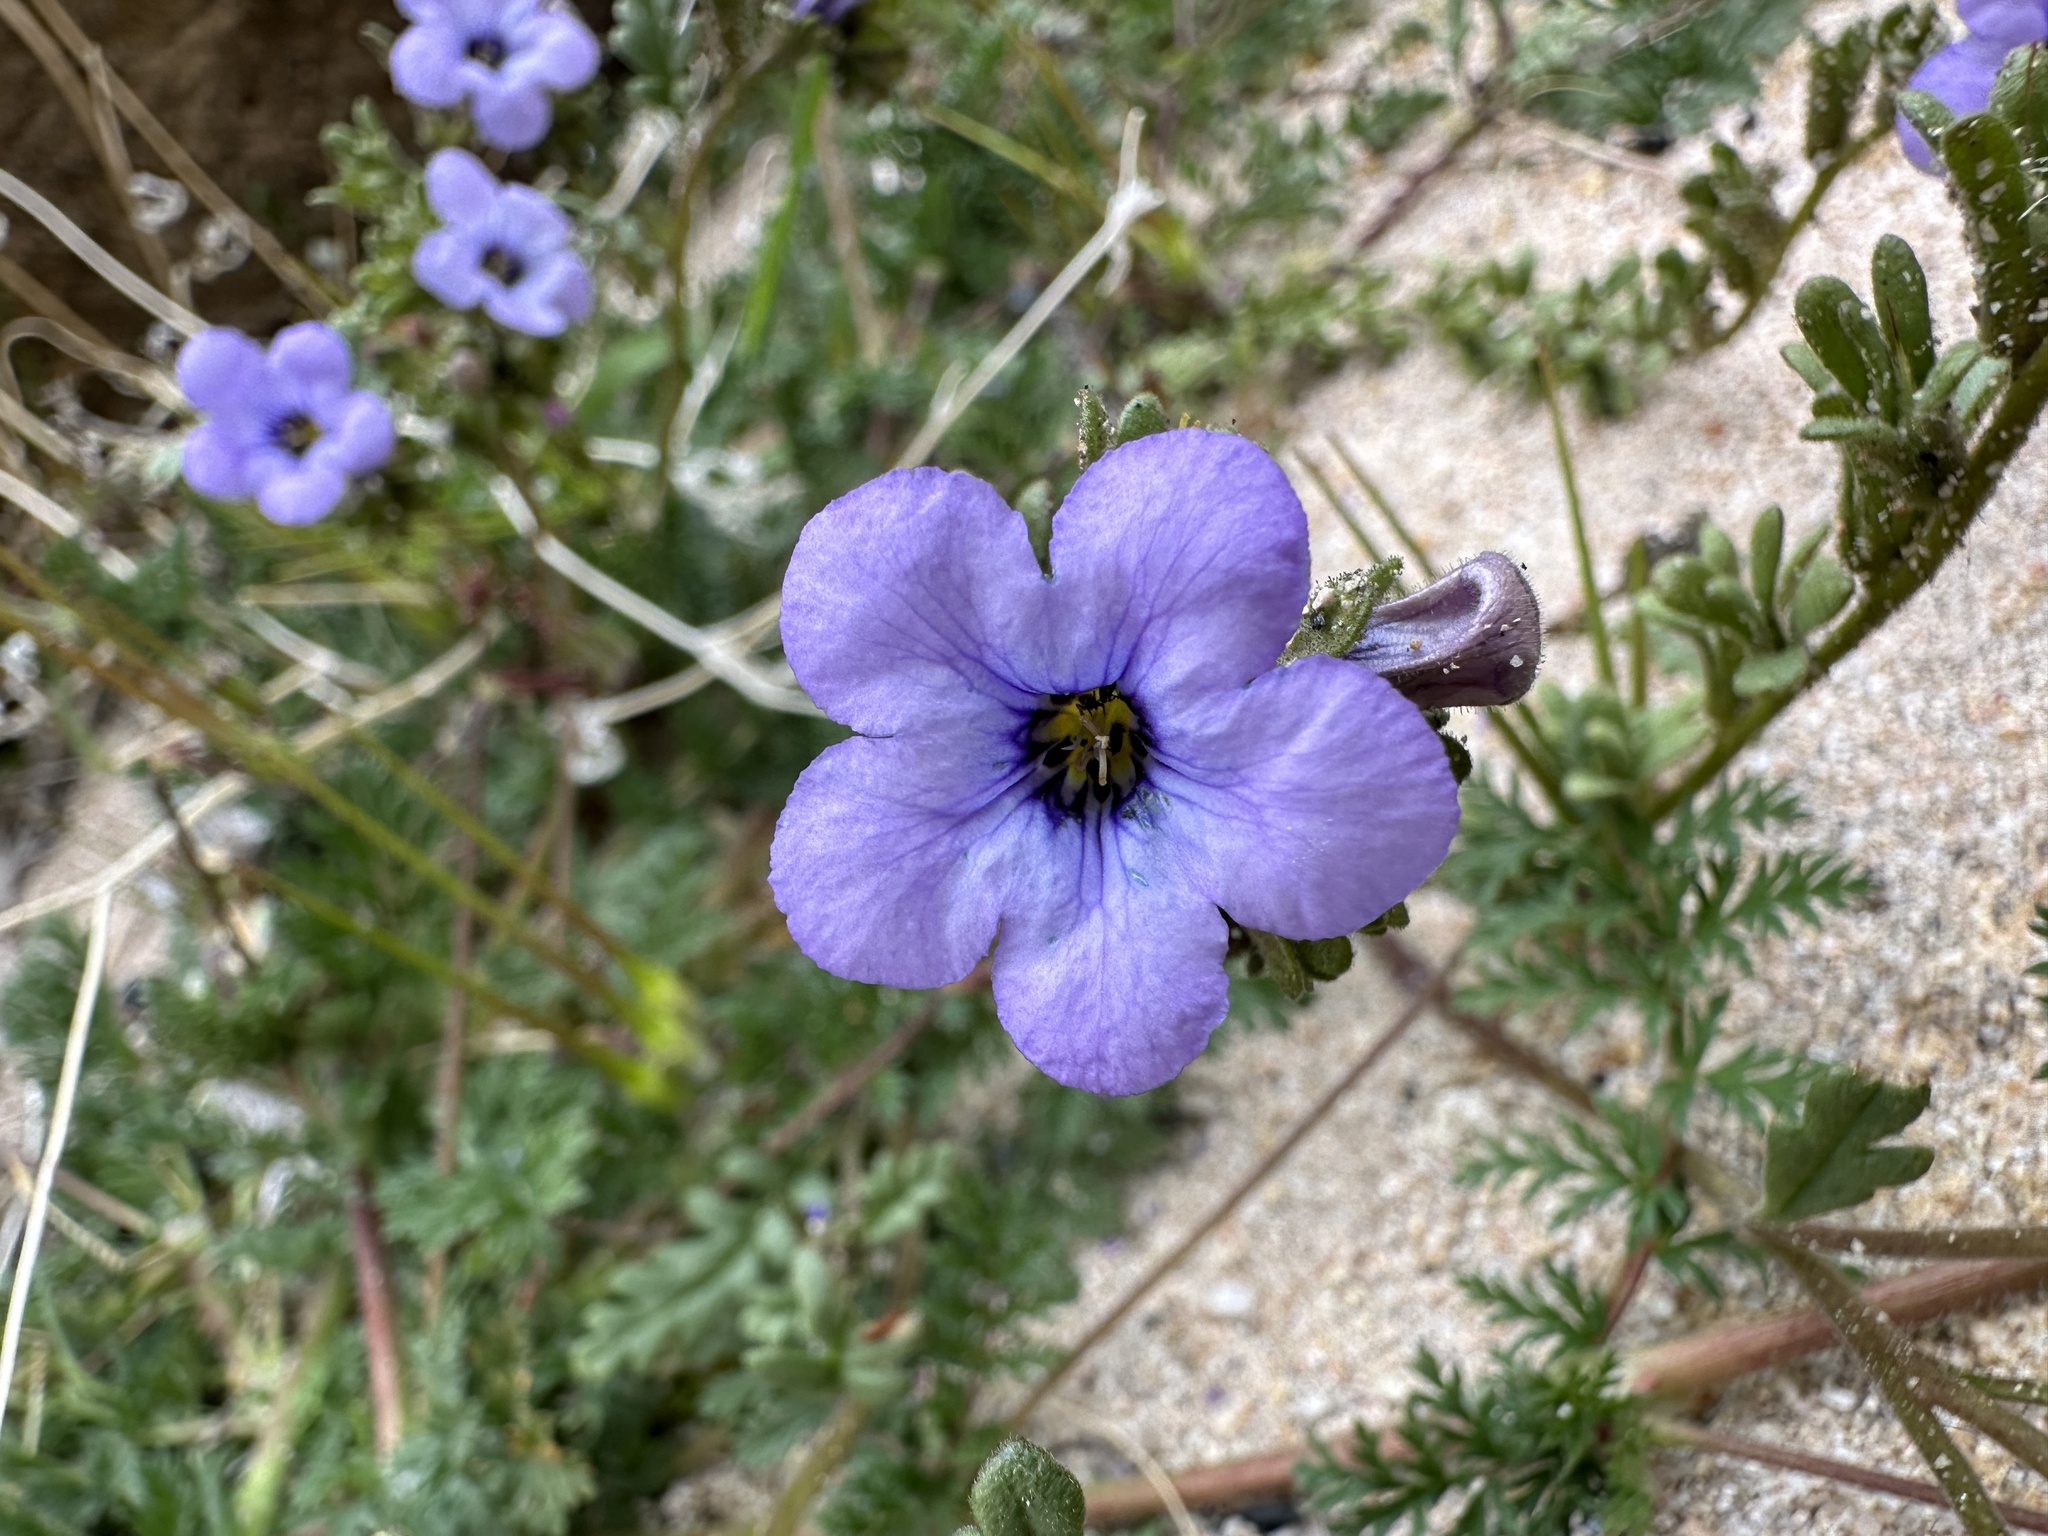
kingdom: Plantae
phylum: Tracheophyta
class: Magnoliopsida
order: Boraginales
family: Hydrophyllaceae
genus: Phacelia
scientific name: Phacelia fremontii
